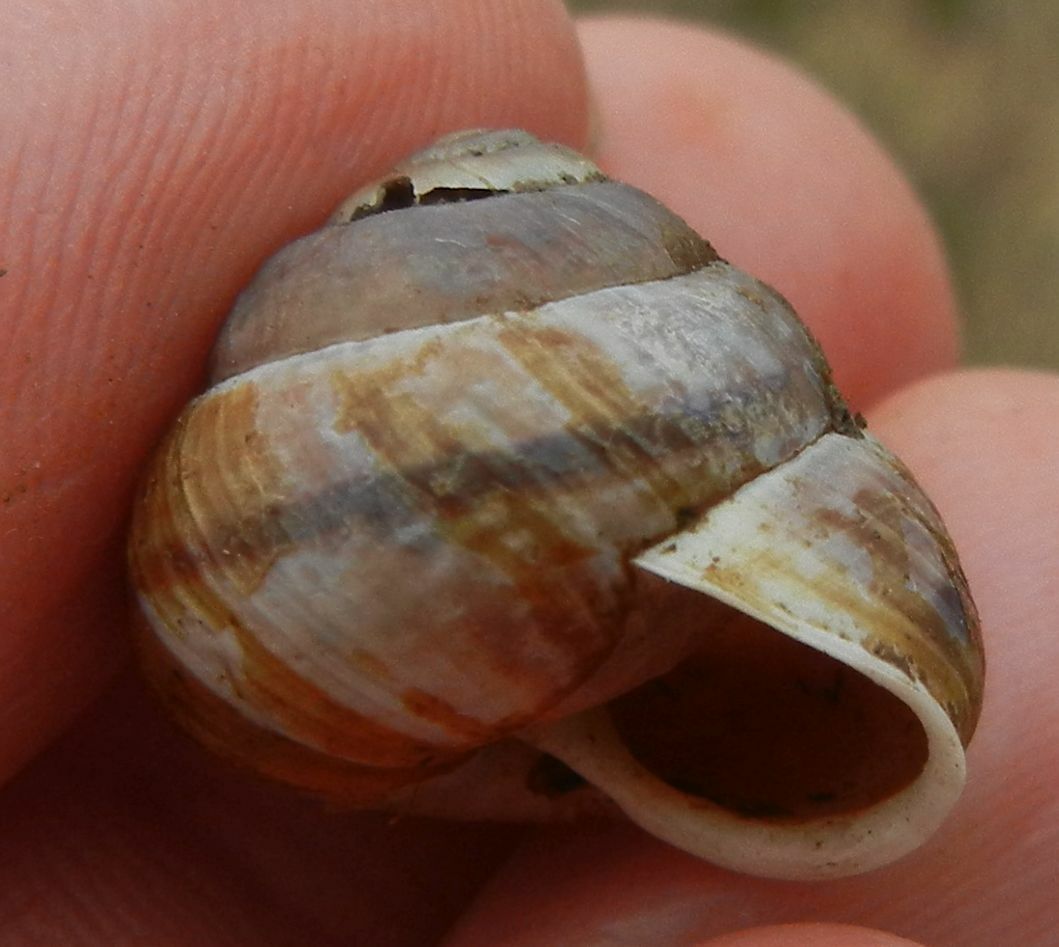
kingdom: Animalia
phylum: Mollusca
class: Gastropoda
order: Stylommatophora
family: Helicidae
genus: Arianta
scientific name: Arianta arbustorum
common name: Copse snail
